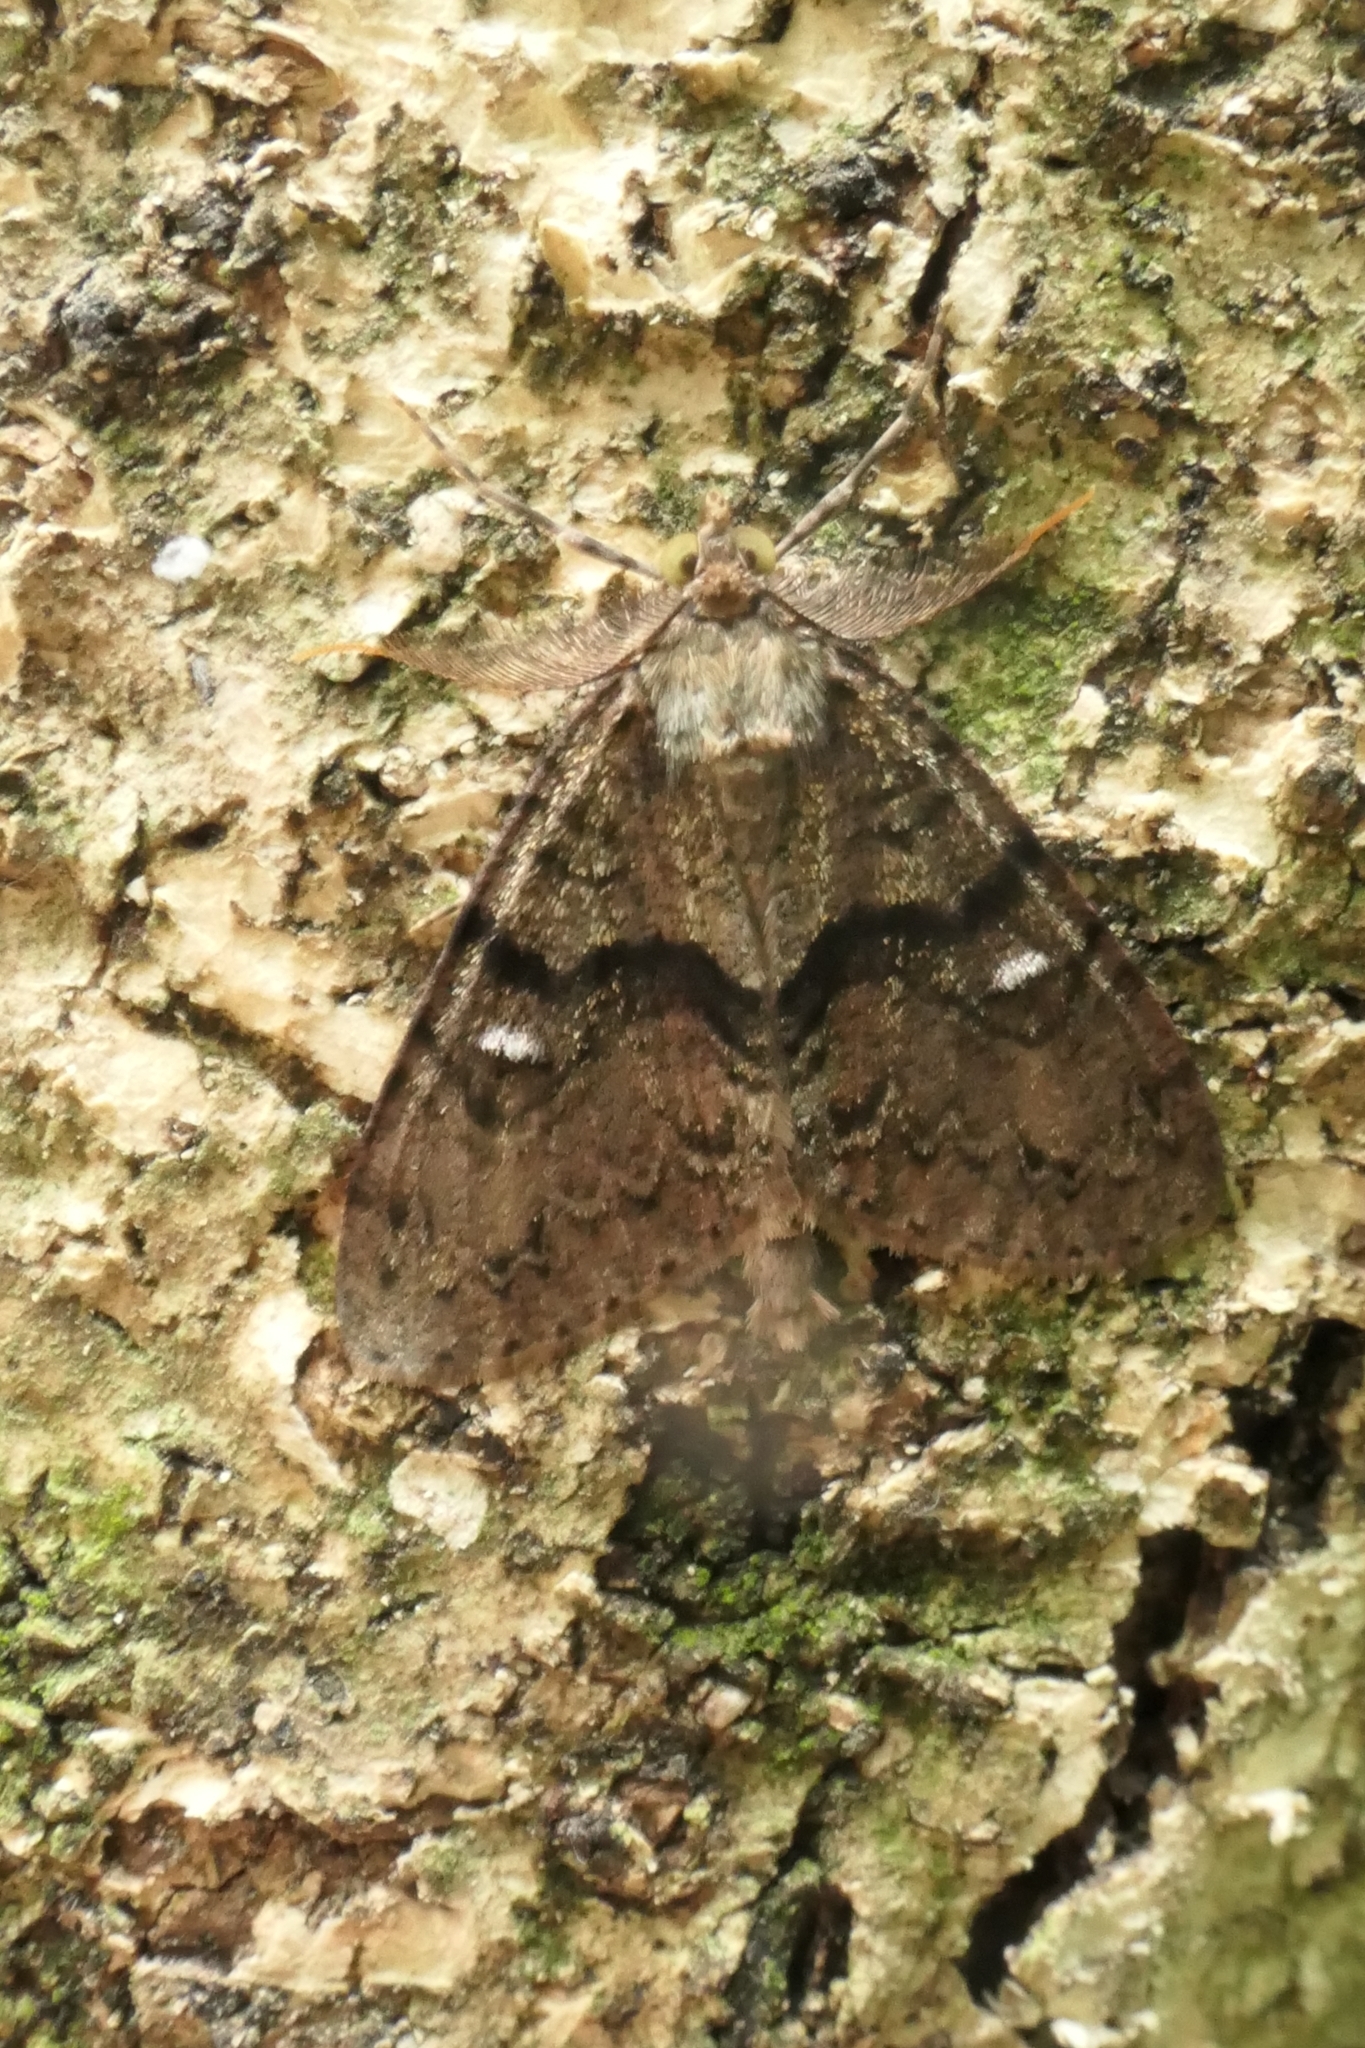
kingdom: Animalia
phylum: Arthropoda
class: Insecta
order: Lepidoptera
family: Geometridae
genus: Pseudocoremia
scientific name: Pseudocoremia suavis
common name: Common forest looper
